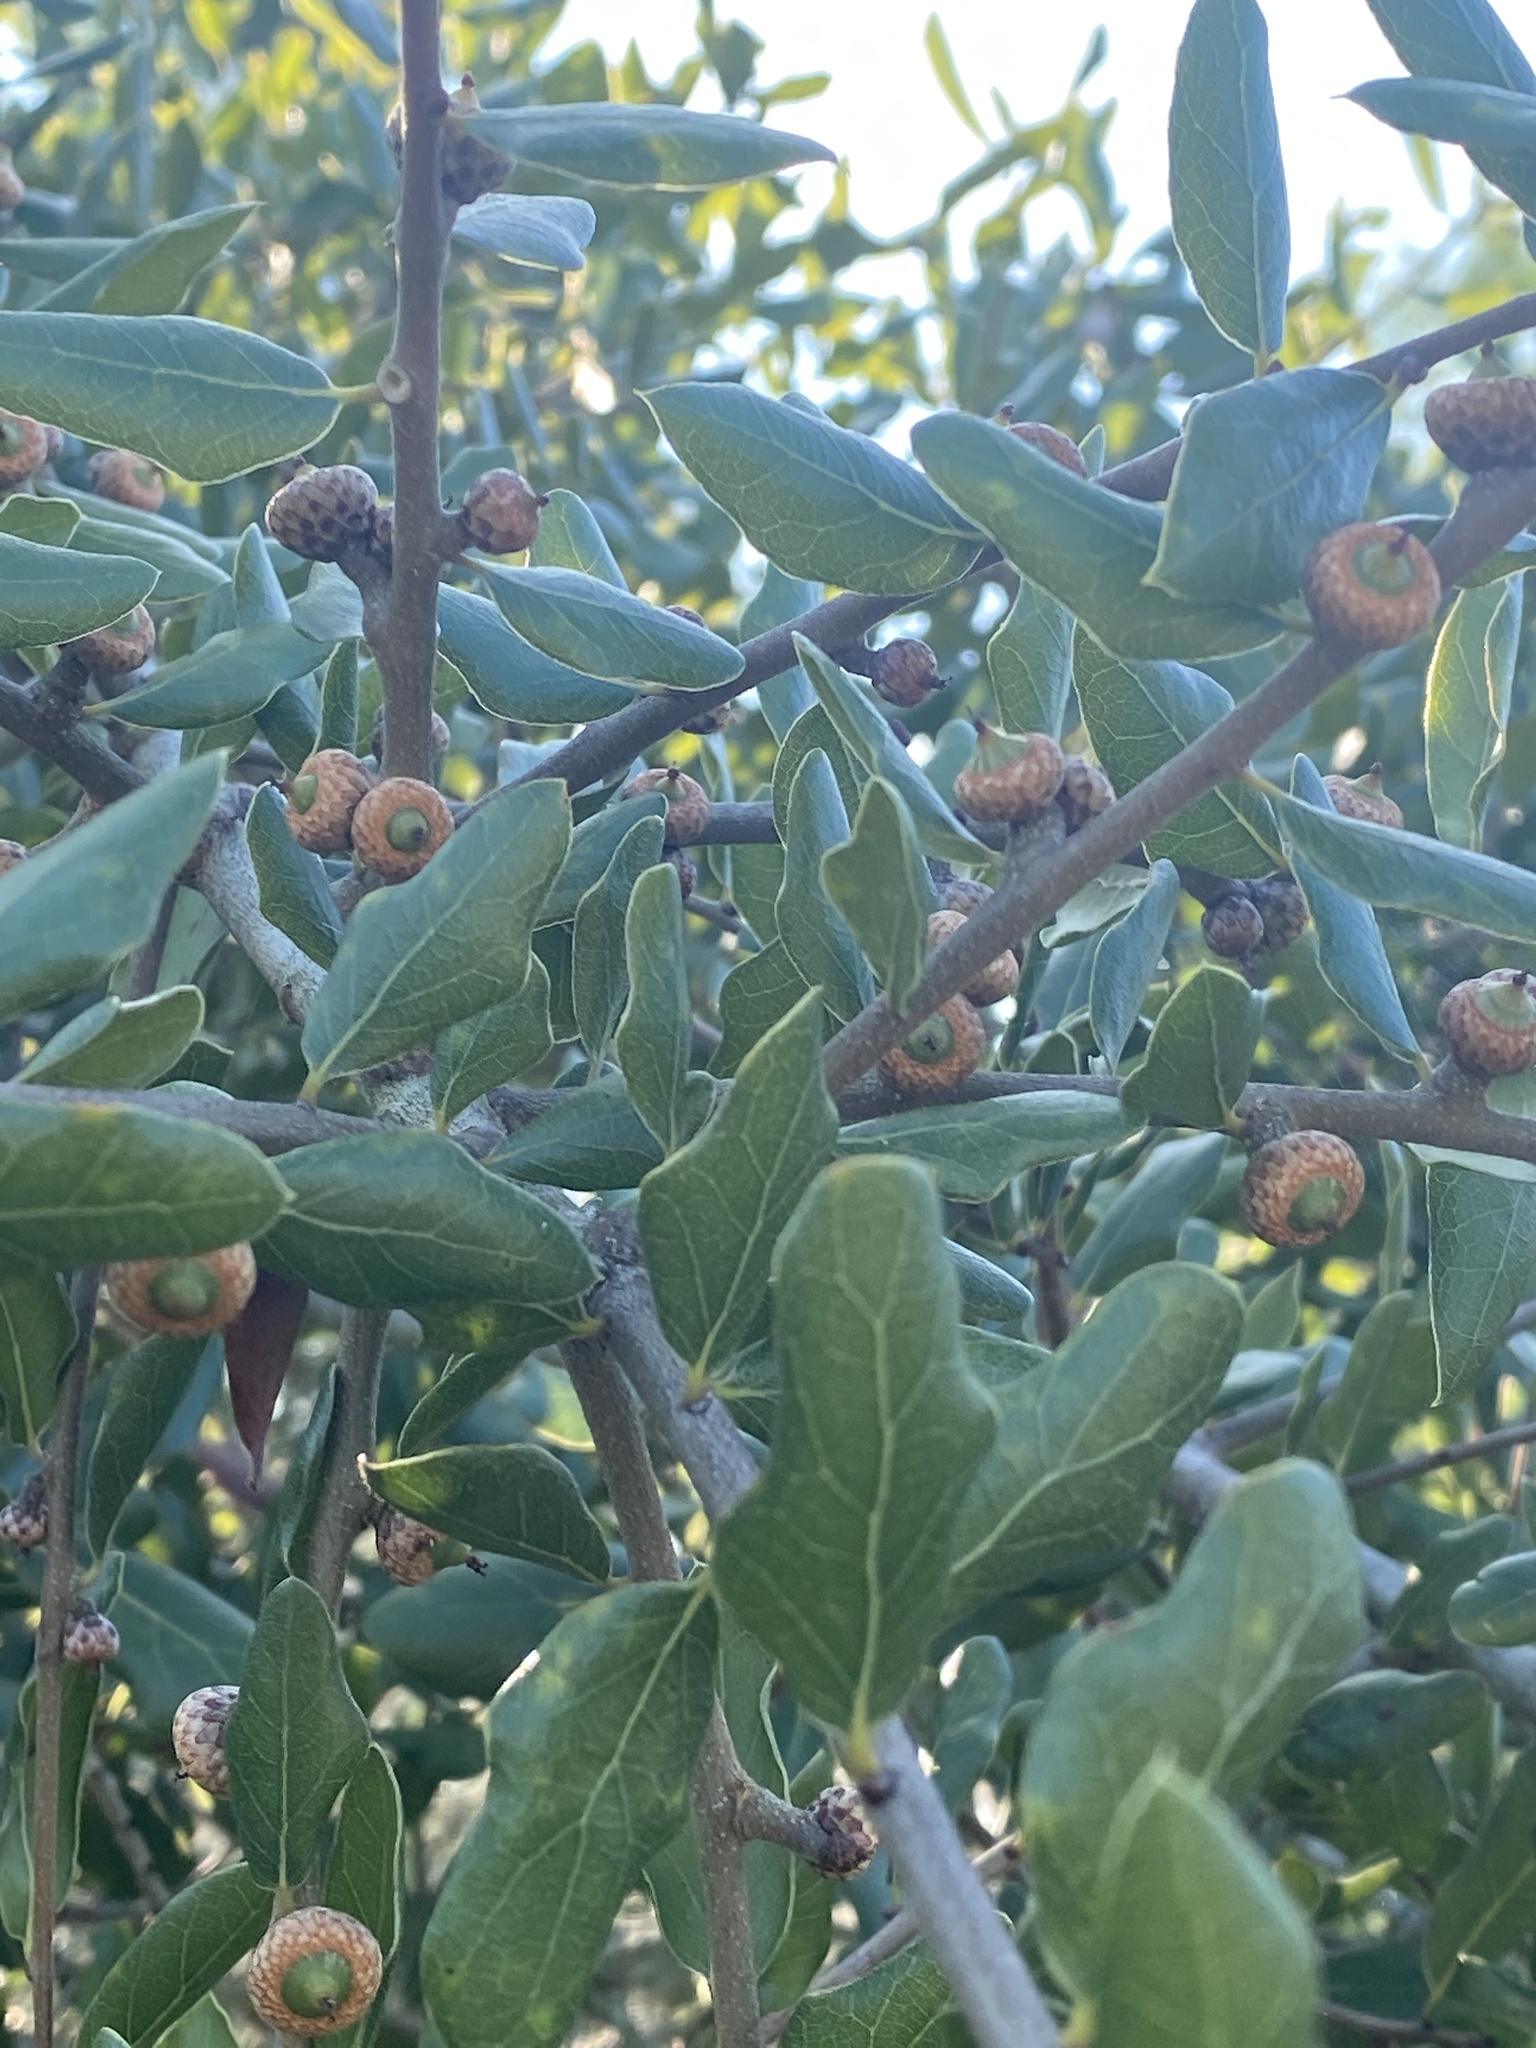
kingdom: Plantae
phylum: Tracheophyta
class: Magnoliopsida
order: Fagales
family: Fagaceae
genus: Quercus
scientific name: Quercus myrtifolia
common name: Myrtle oak
